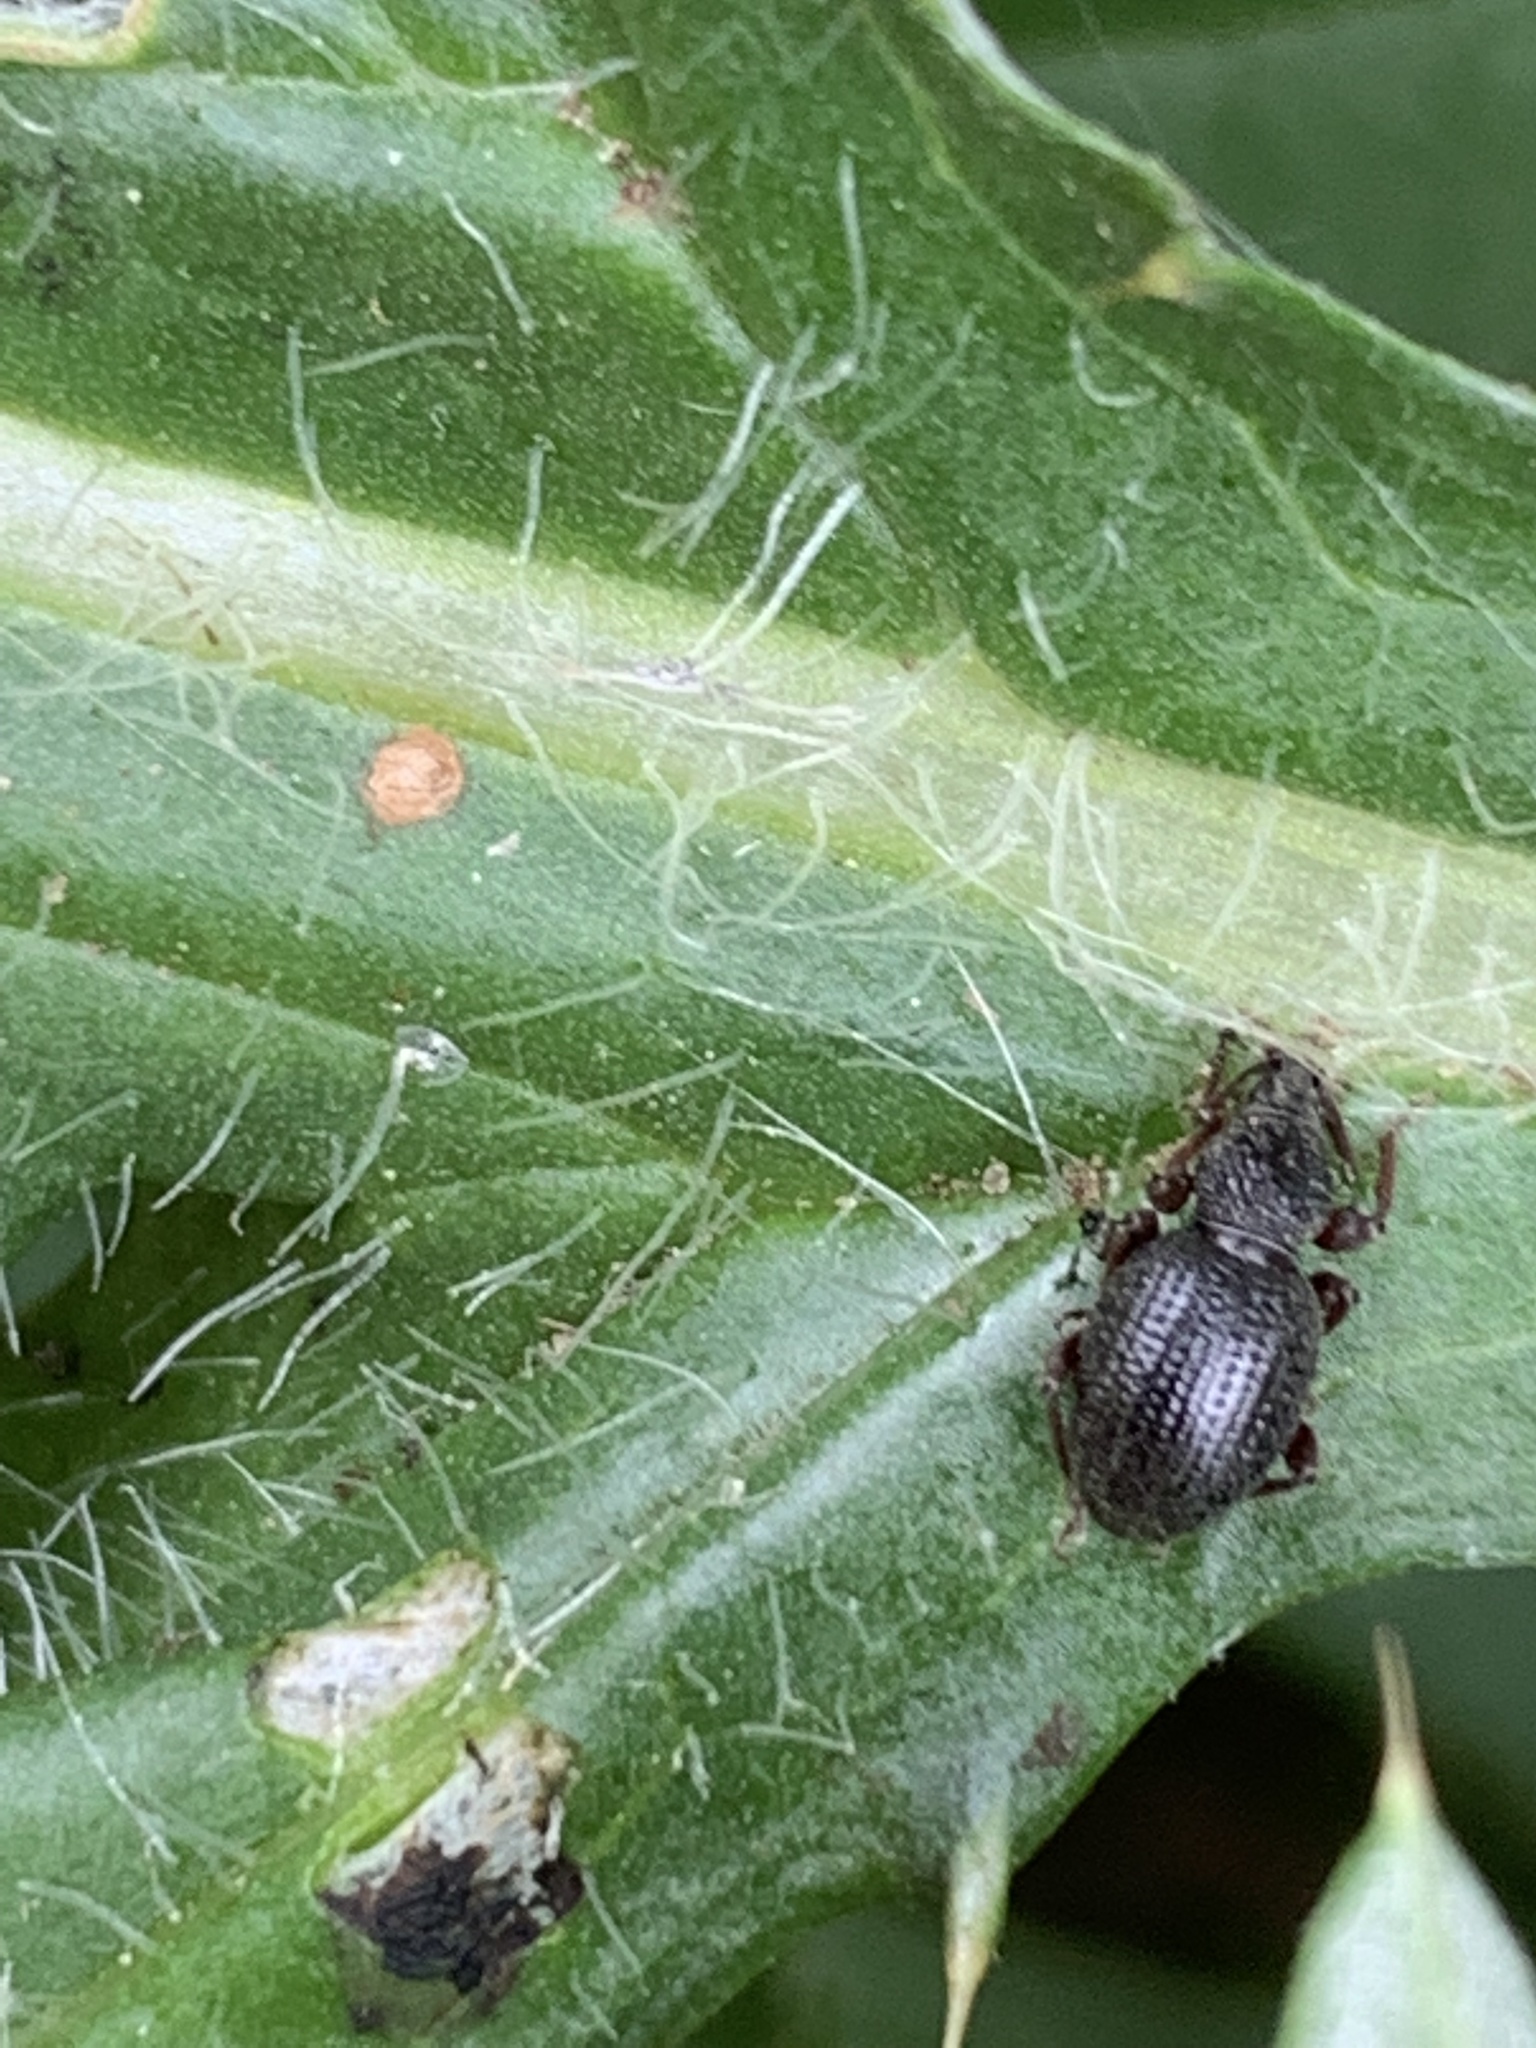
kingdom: Animalia
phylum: Arthropoda
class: Insecta
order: Coleoptera
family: Curculionidae
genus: Otiorhynchus
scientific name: Otiorhynchus ovatus
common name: Strawberry root weevil
